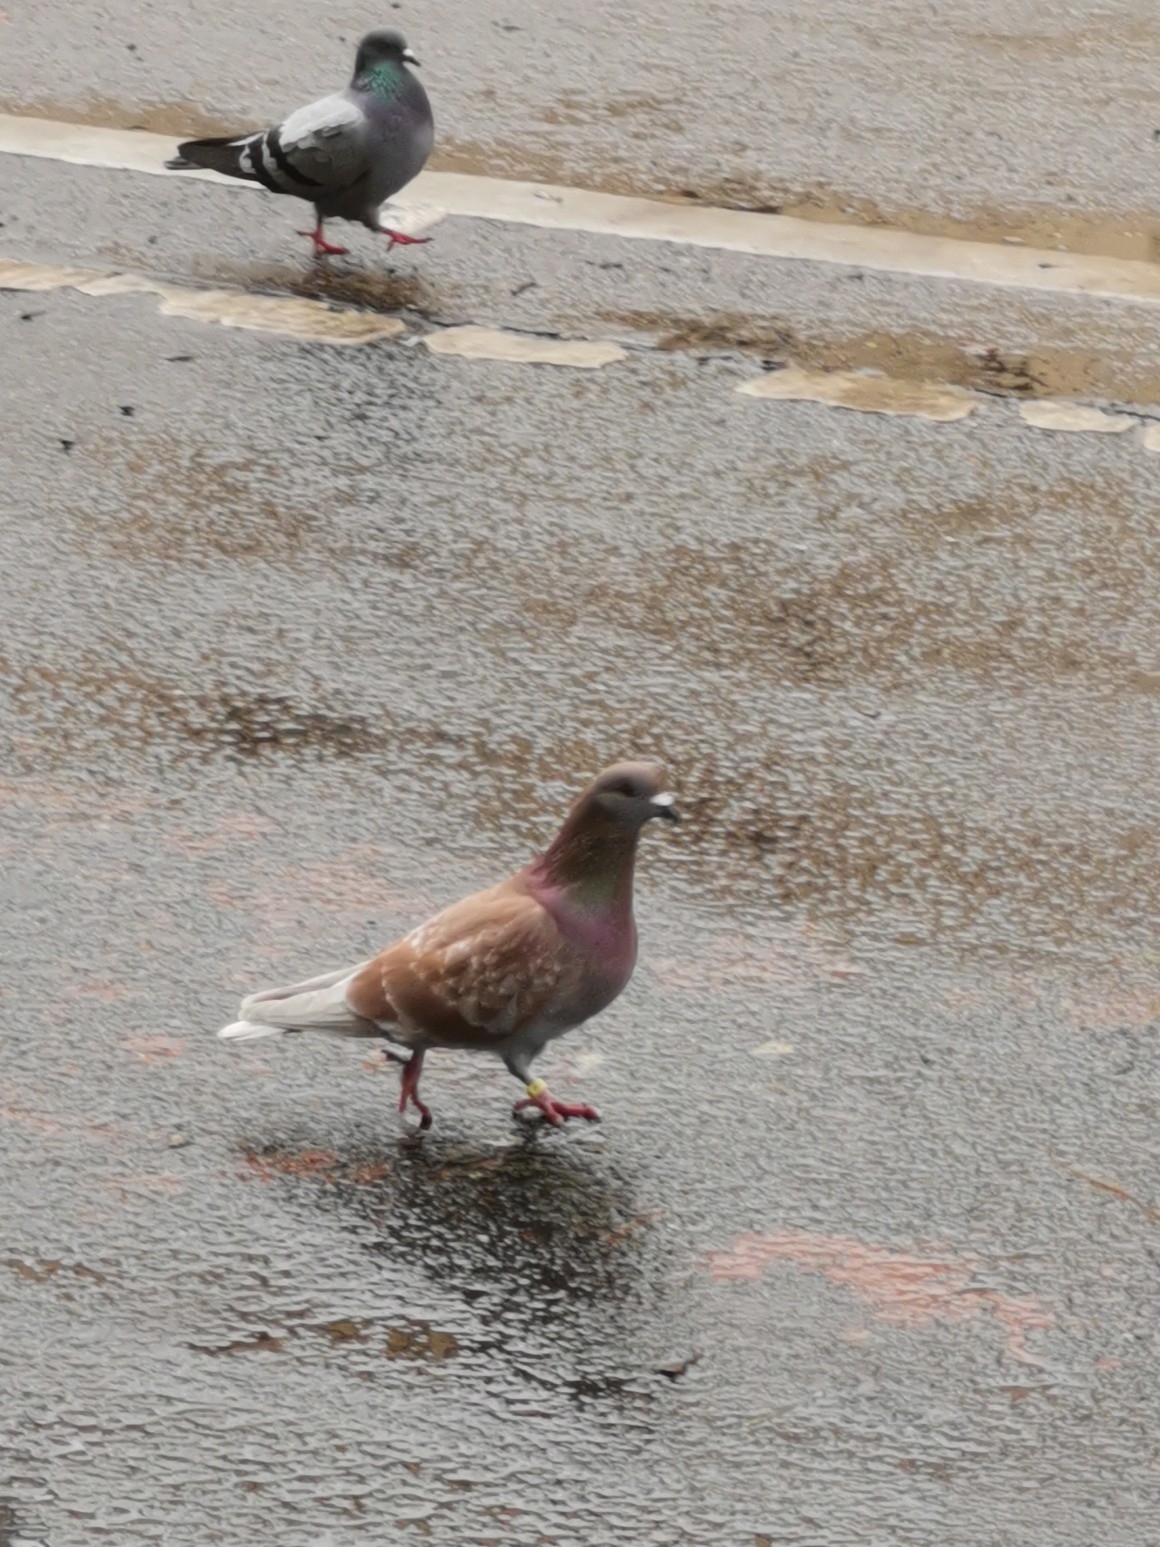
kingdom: Animalia
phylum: Chordata
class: Aves
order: Columbiformes
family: Columbidae
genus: Columba
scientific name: Columba livia
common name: Rock pigeon
